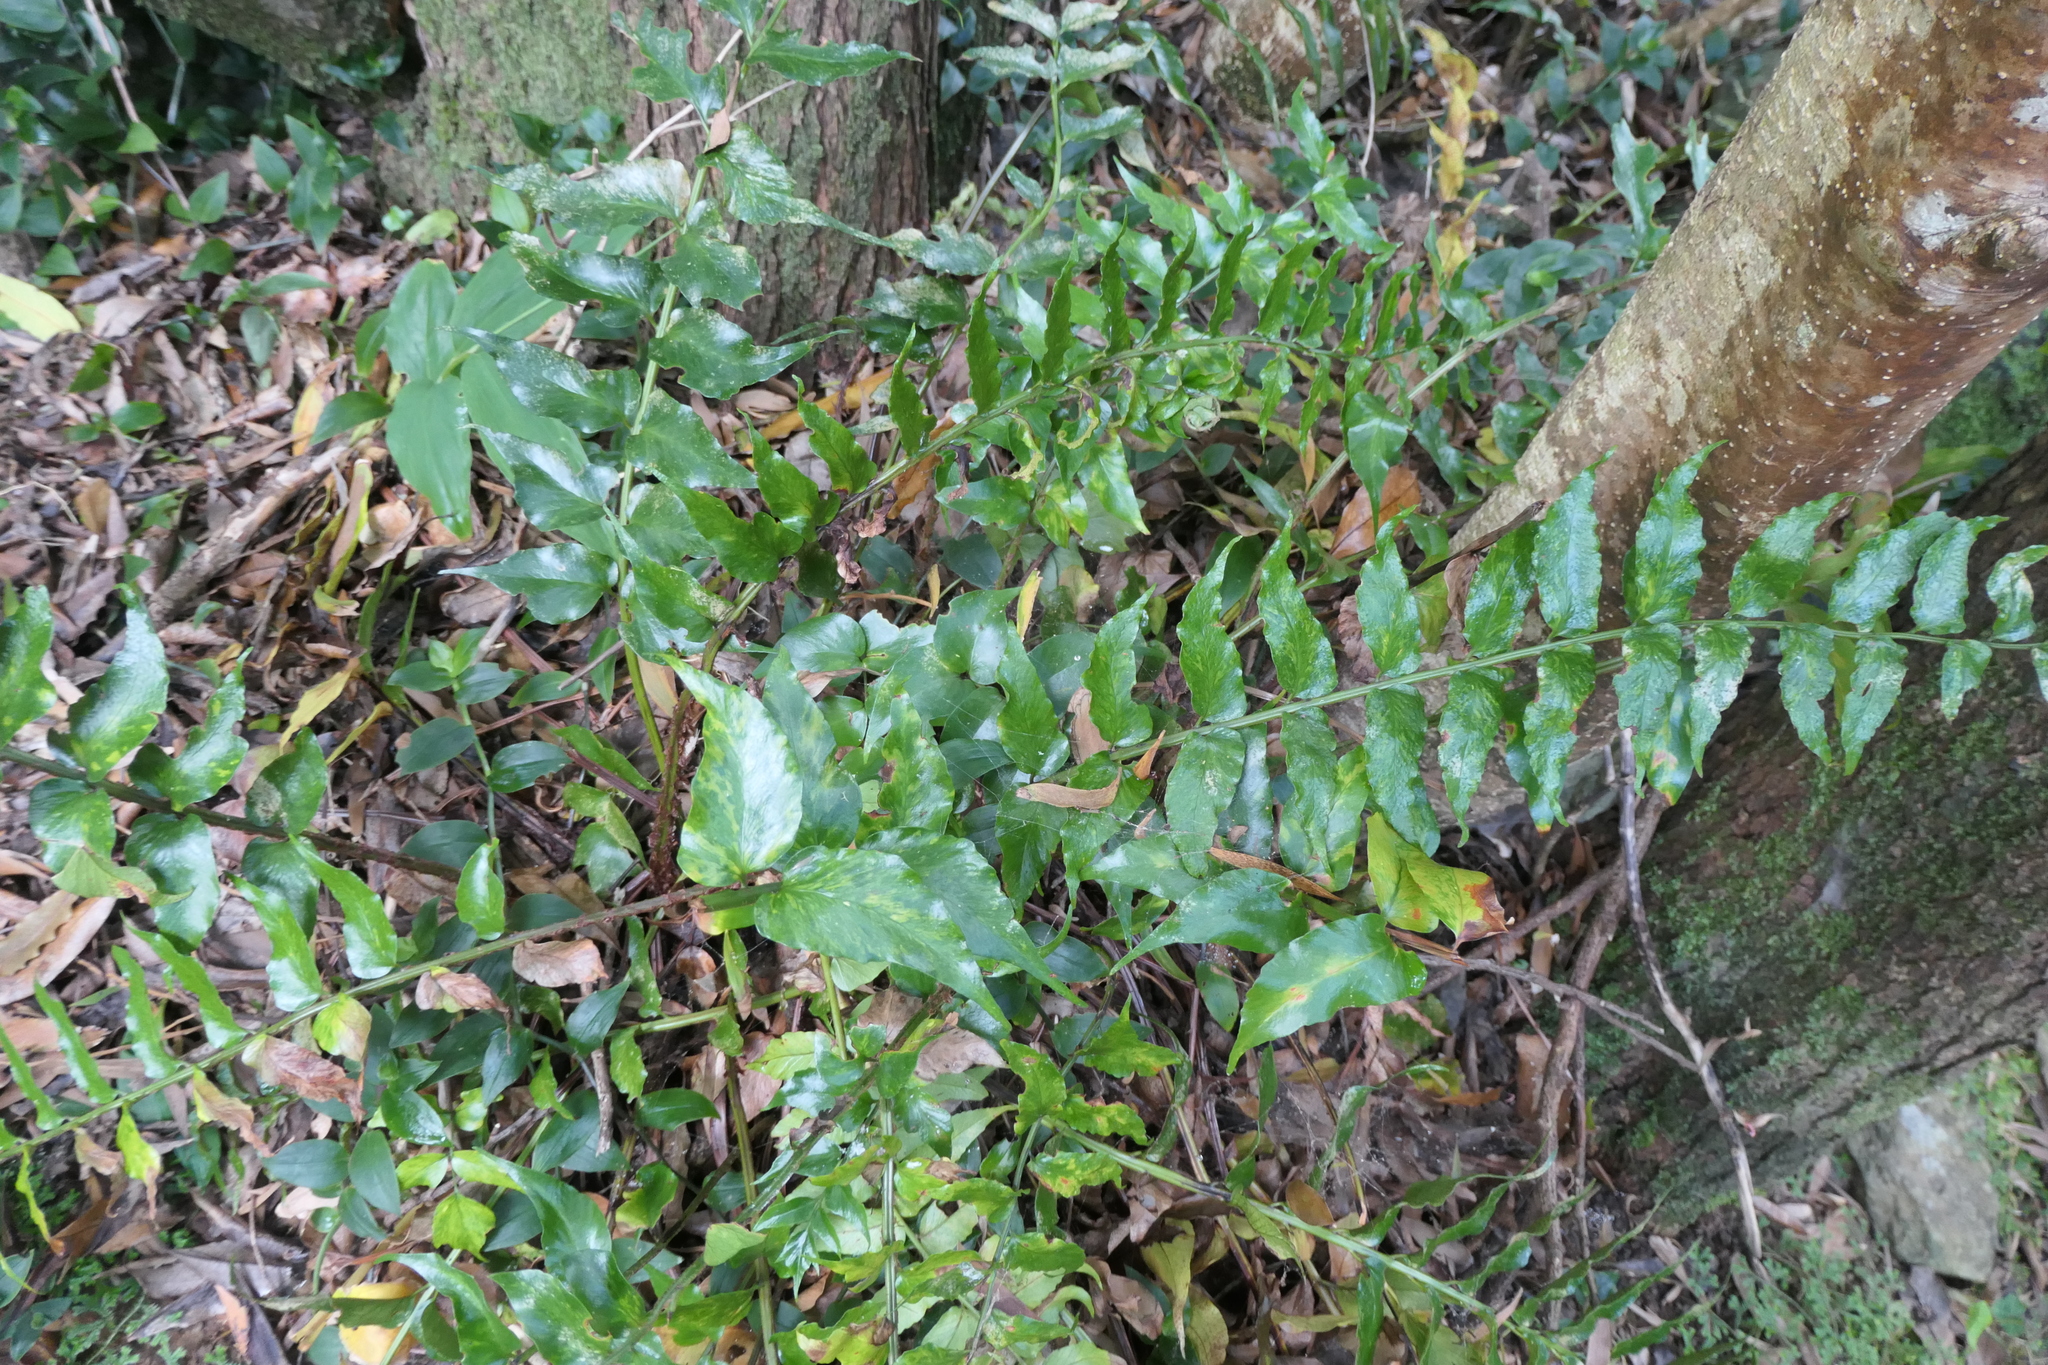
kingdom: Plantae
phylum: Tracheophyta
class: Polypodiopsida
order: Polypodiales
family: Dryopteridaceae
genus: Cyrtomium
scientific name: Cyrtomium falcatum
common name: House holly-fern
